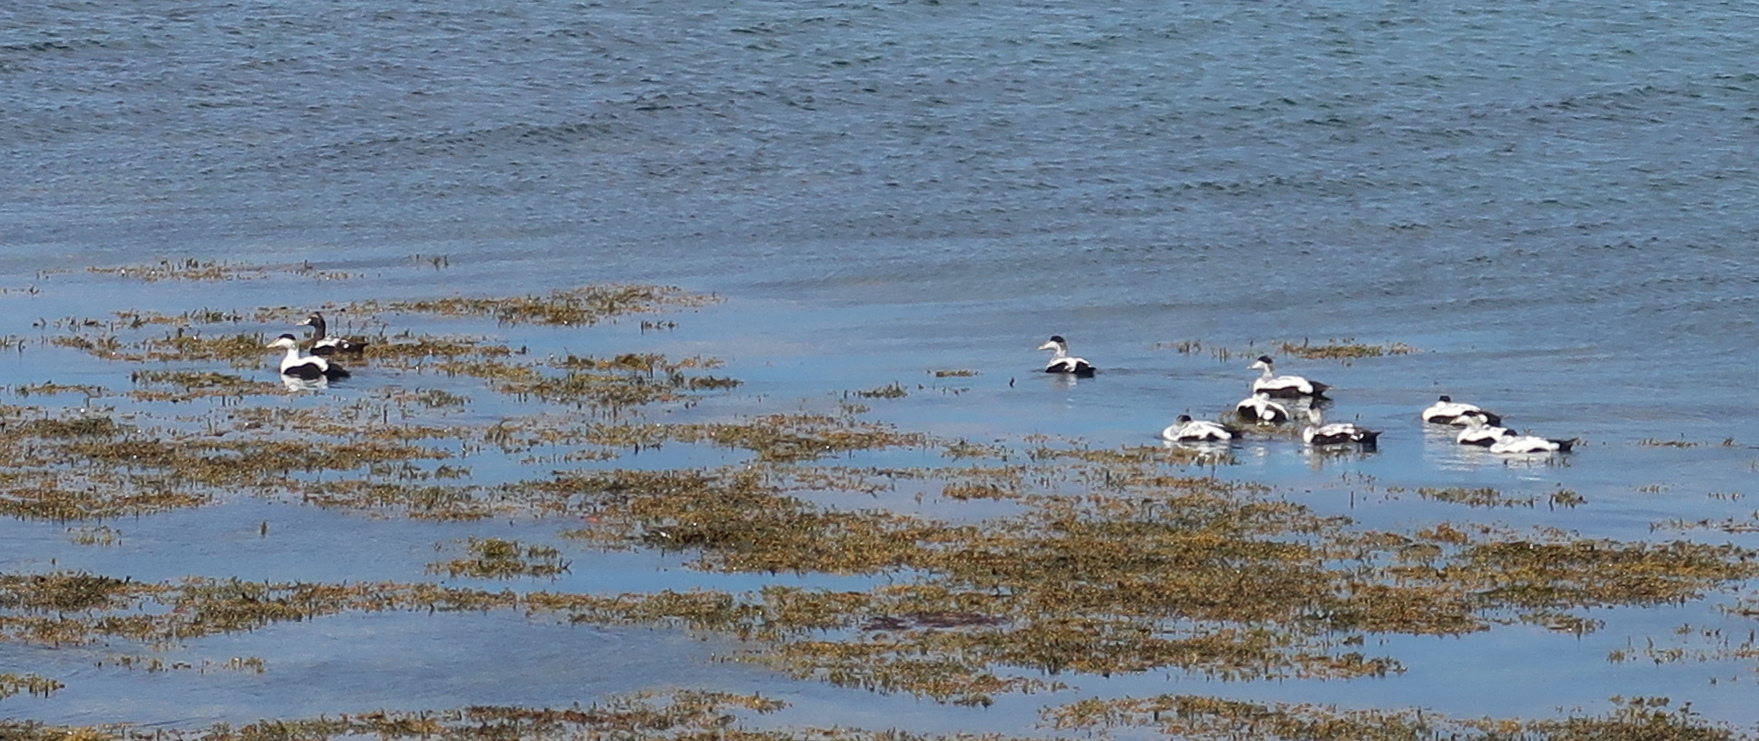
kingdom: Animalia
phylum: Chordata
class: Aves
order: Anseriformes
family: Anatidae
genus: Somateria
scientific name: Somateria mollissima
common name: Common eider
